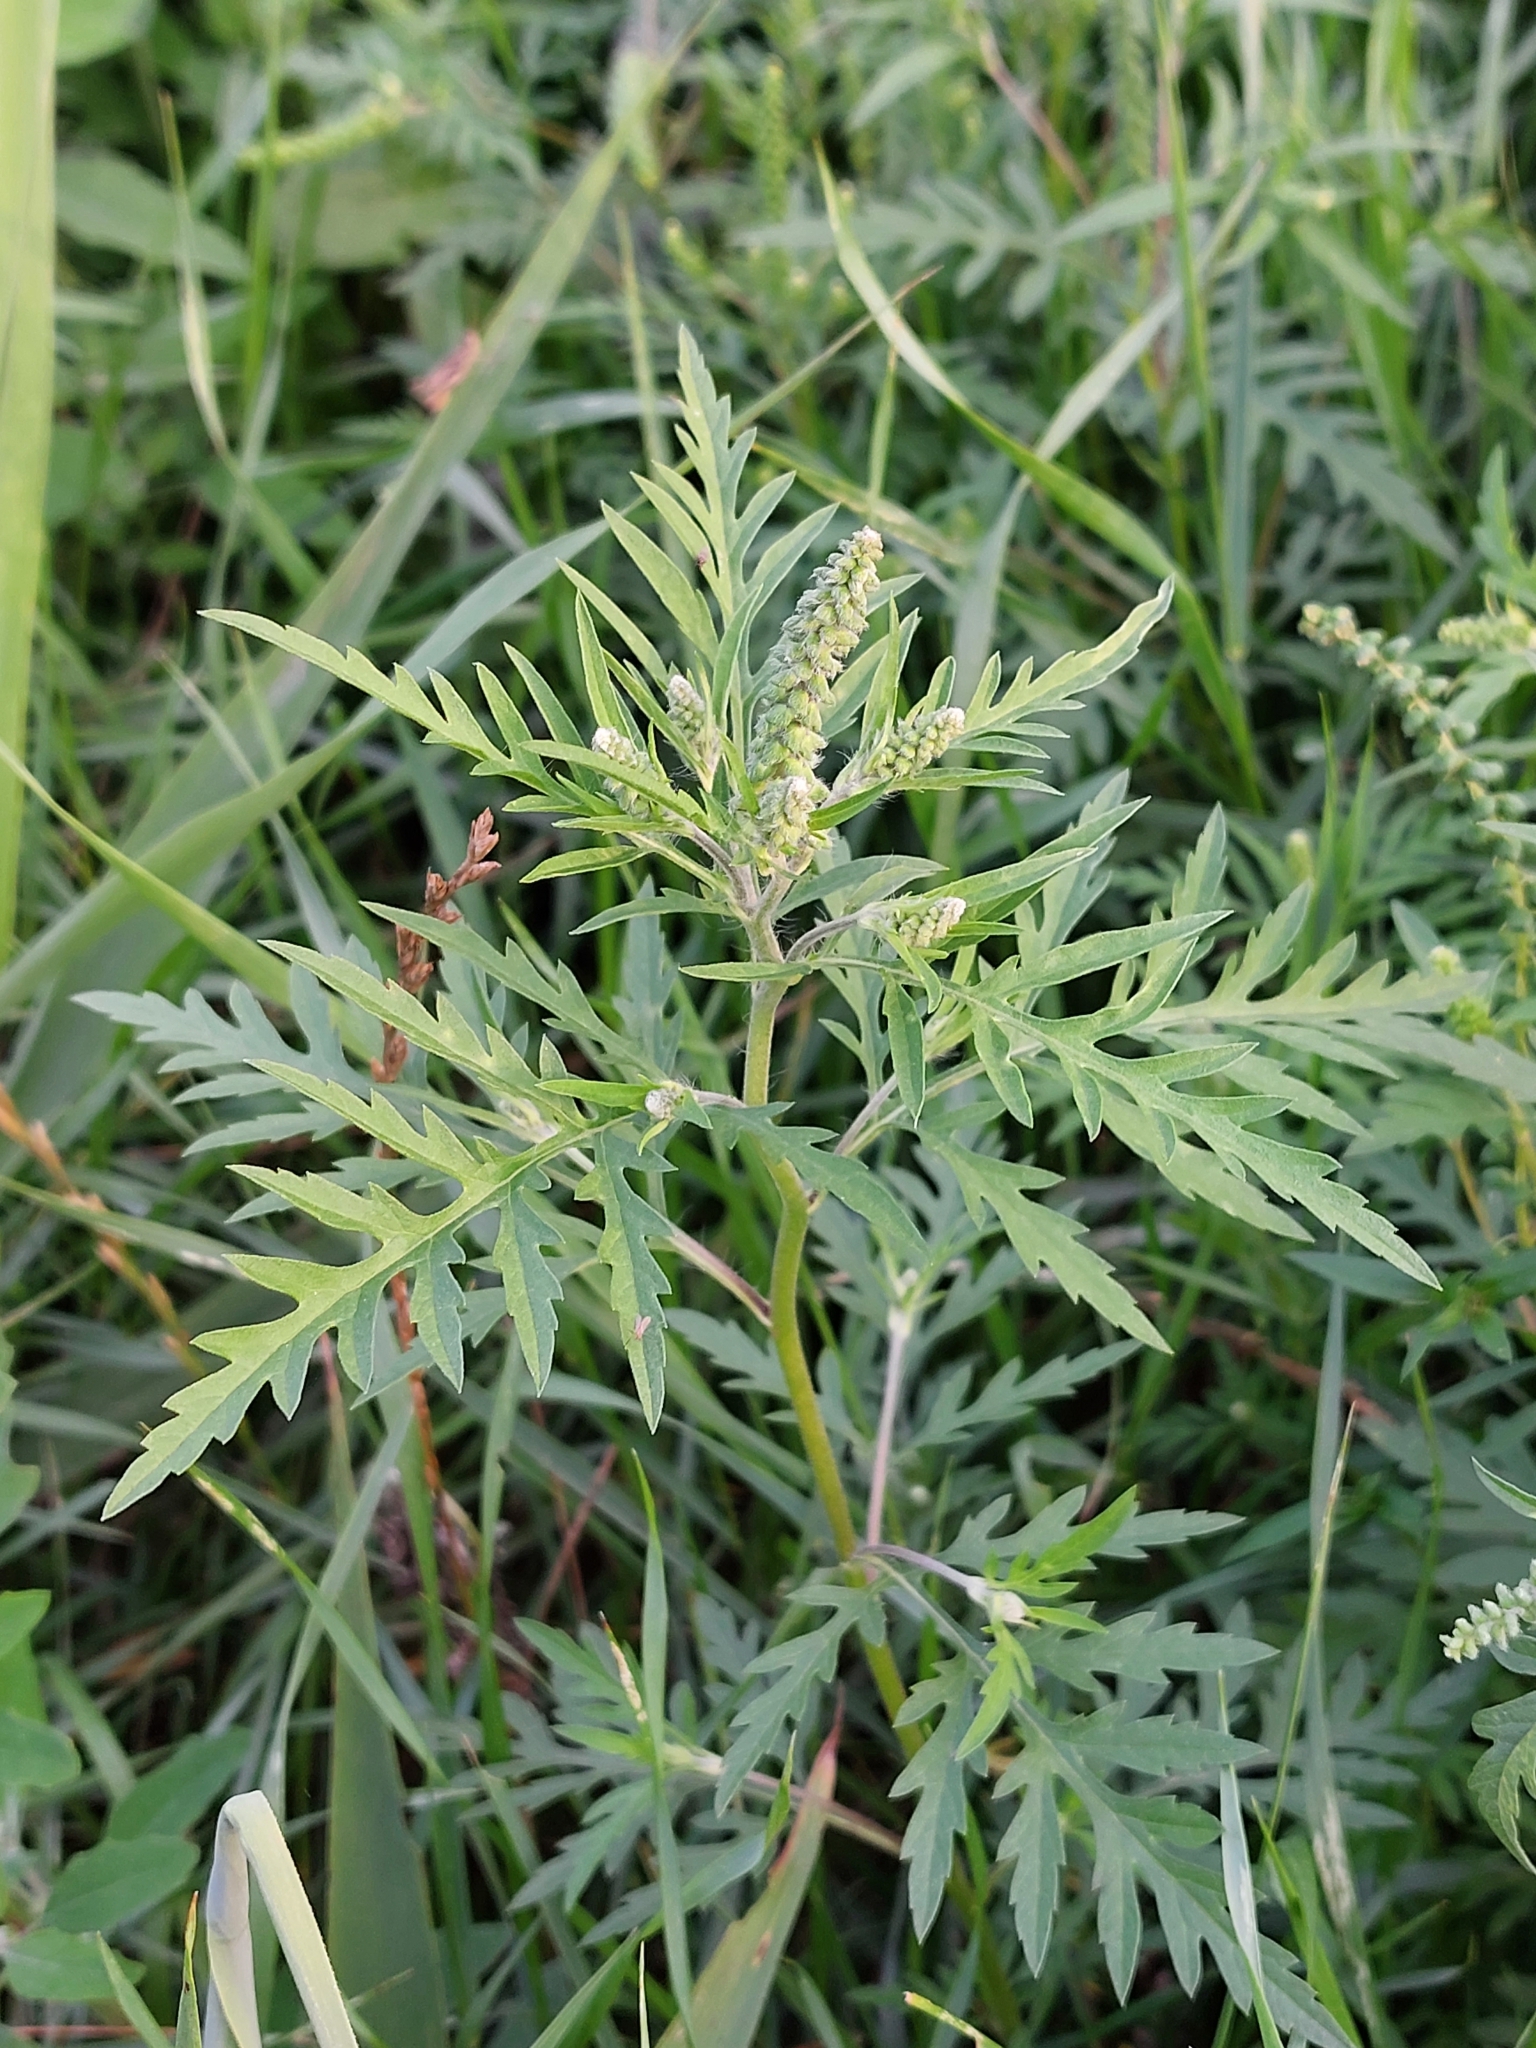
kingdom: Plantae
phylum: Tracheophyta
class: Magnoliopsida
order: Asterales
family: Asteraceae
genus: Ambrosia
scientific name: Ambrosia artemisiifolia
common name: Annual ragweed
